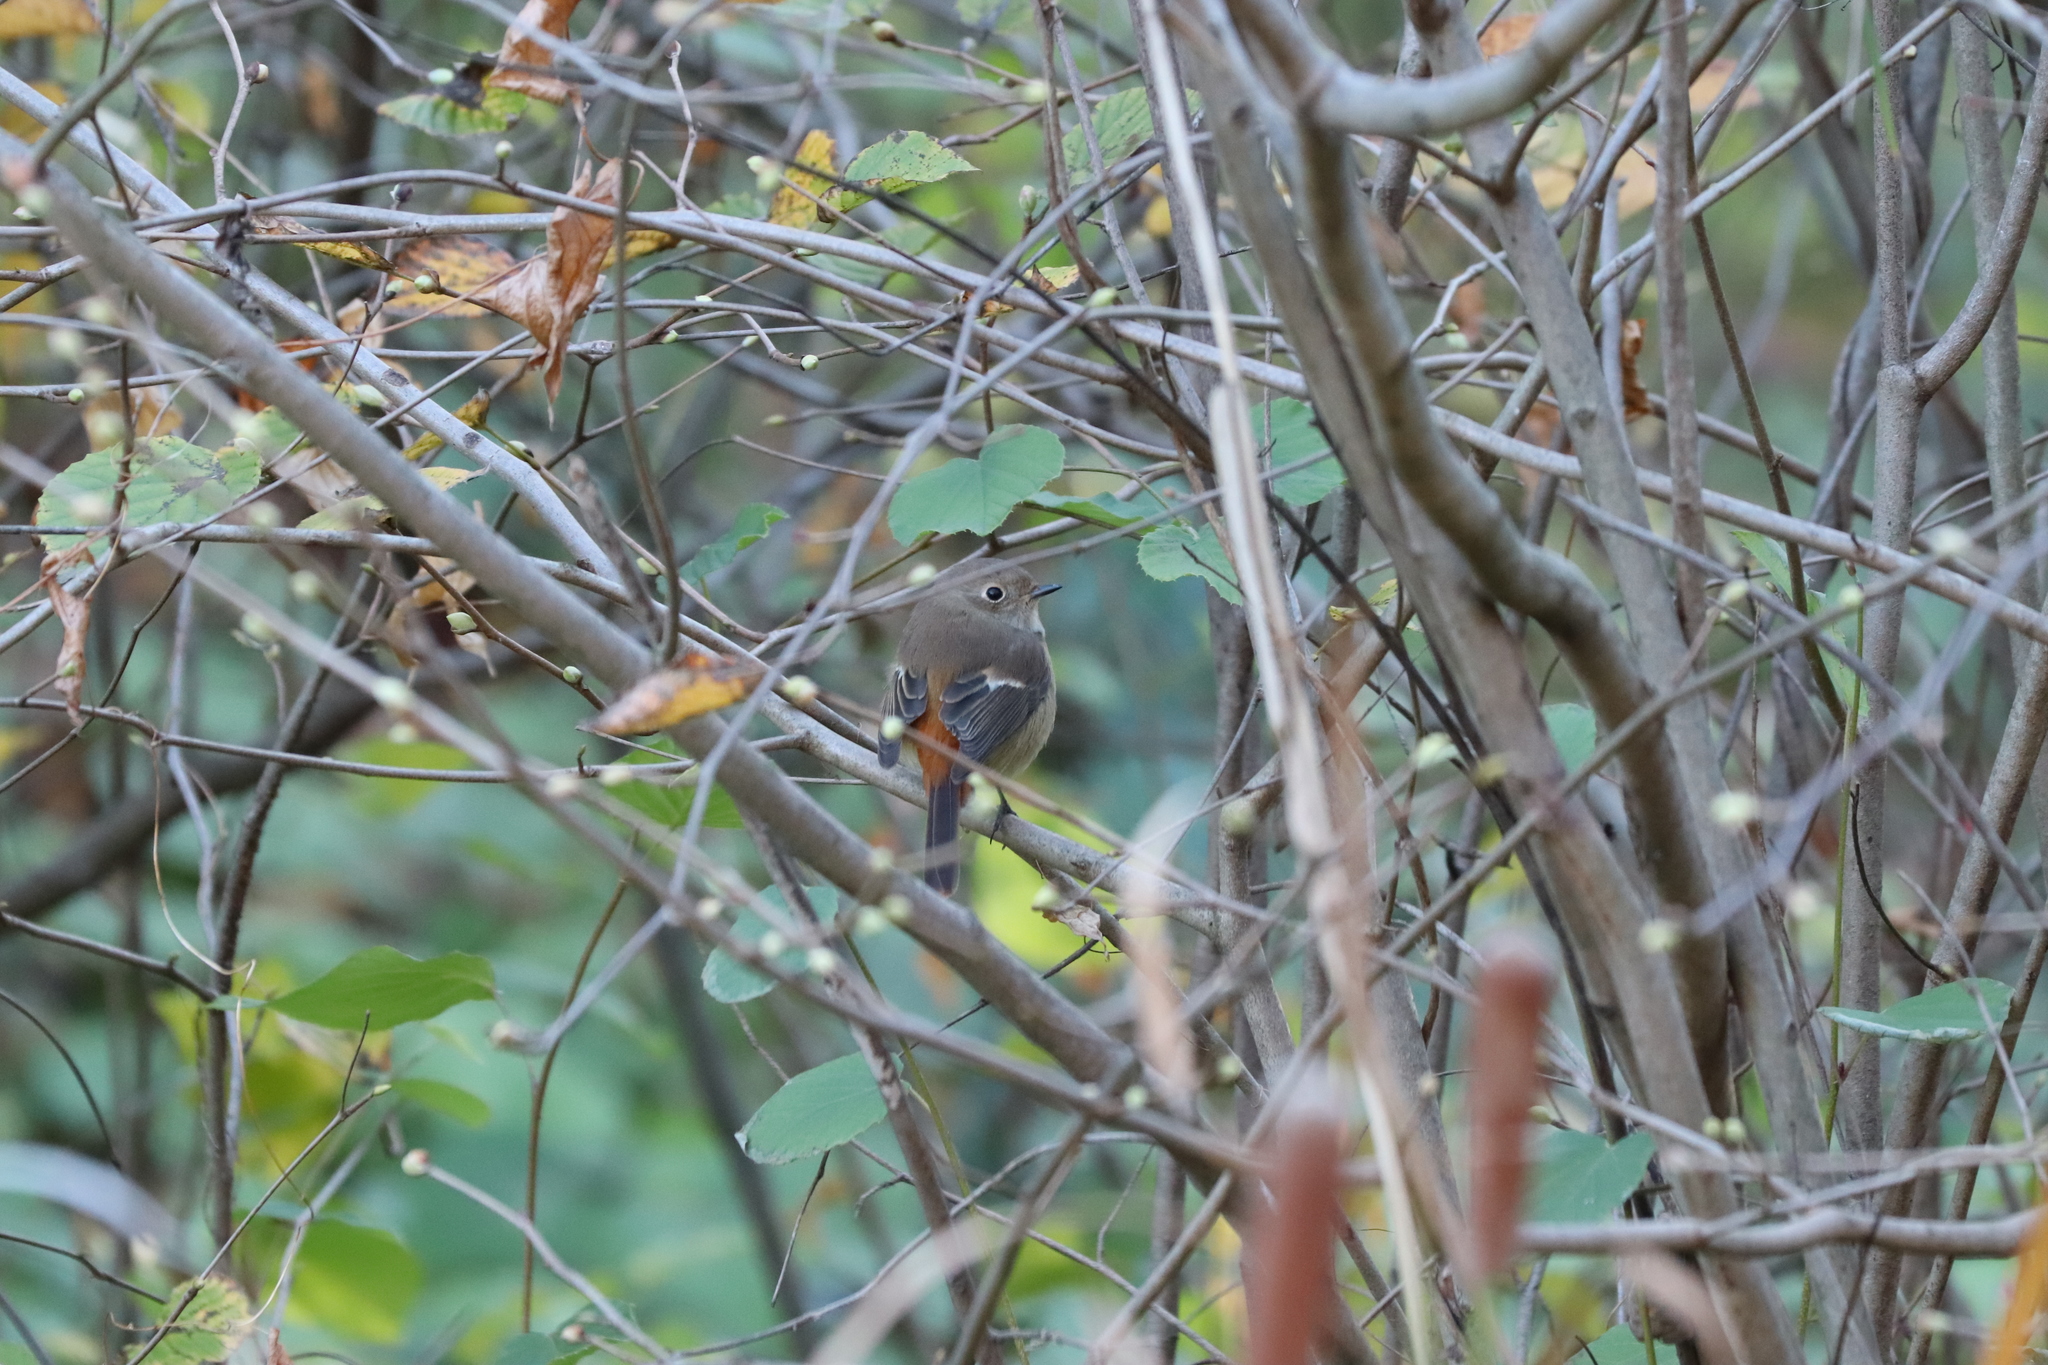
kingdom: Animalia
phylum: Chordata
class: Aves
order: Passeriformes
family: Muscicapidae
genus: Phoenicurus
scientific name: Phoenicurus auroreus
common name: Daurian redstart
